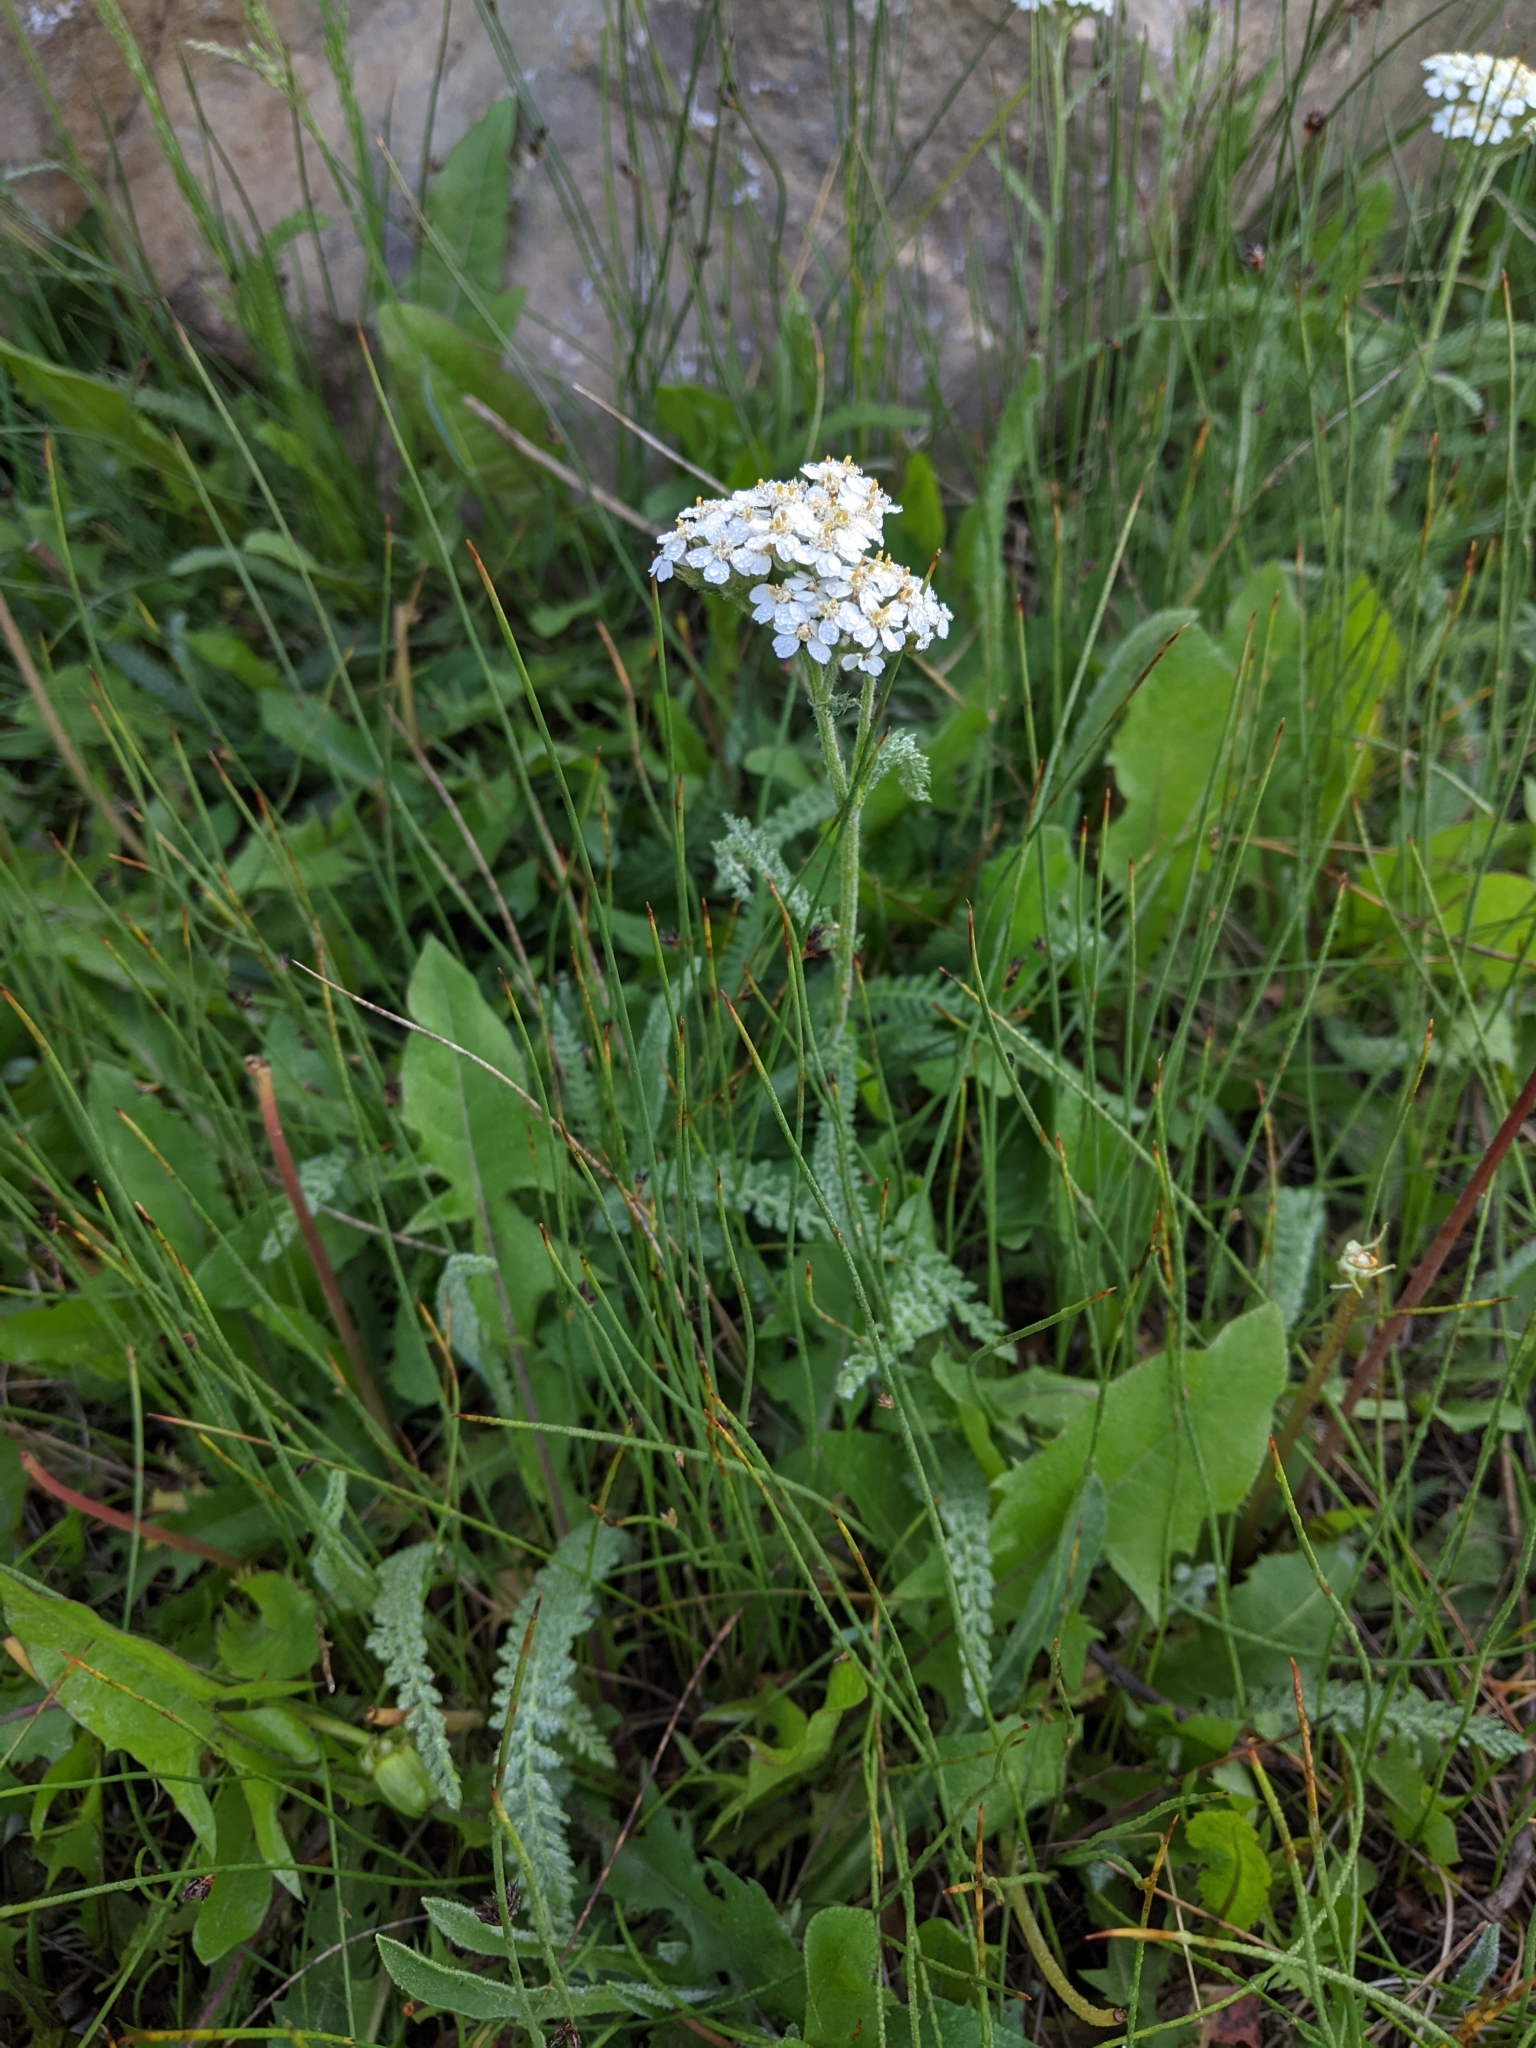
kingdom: Plantae
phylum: Tracheophyta
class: Magnoliopsida
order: Asterales
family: Asteraceae
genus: Achillea
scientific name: Achillea millefolium
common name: Yarrow
